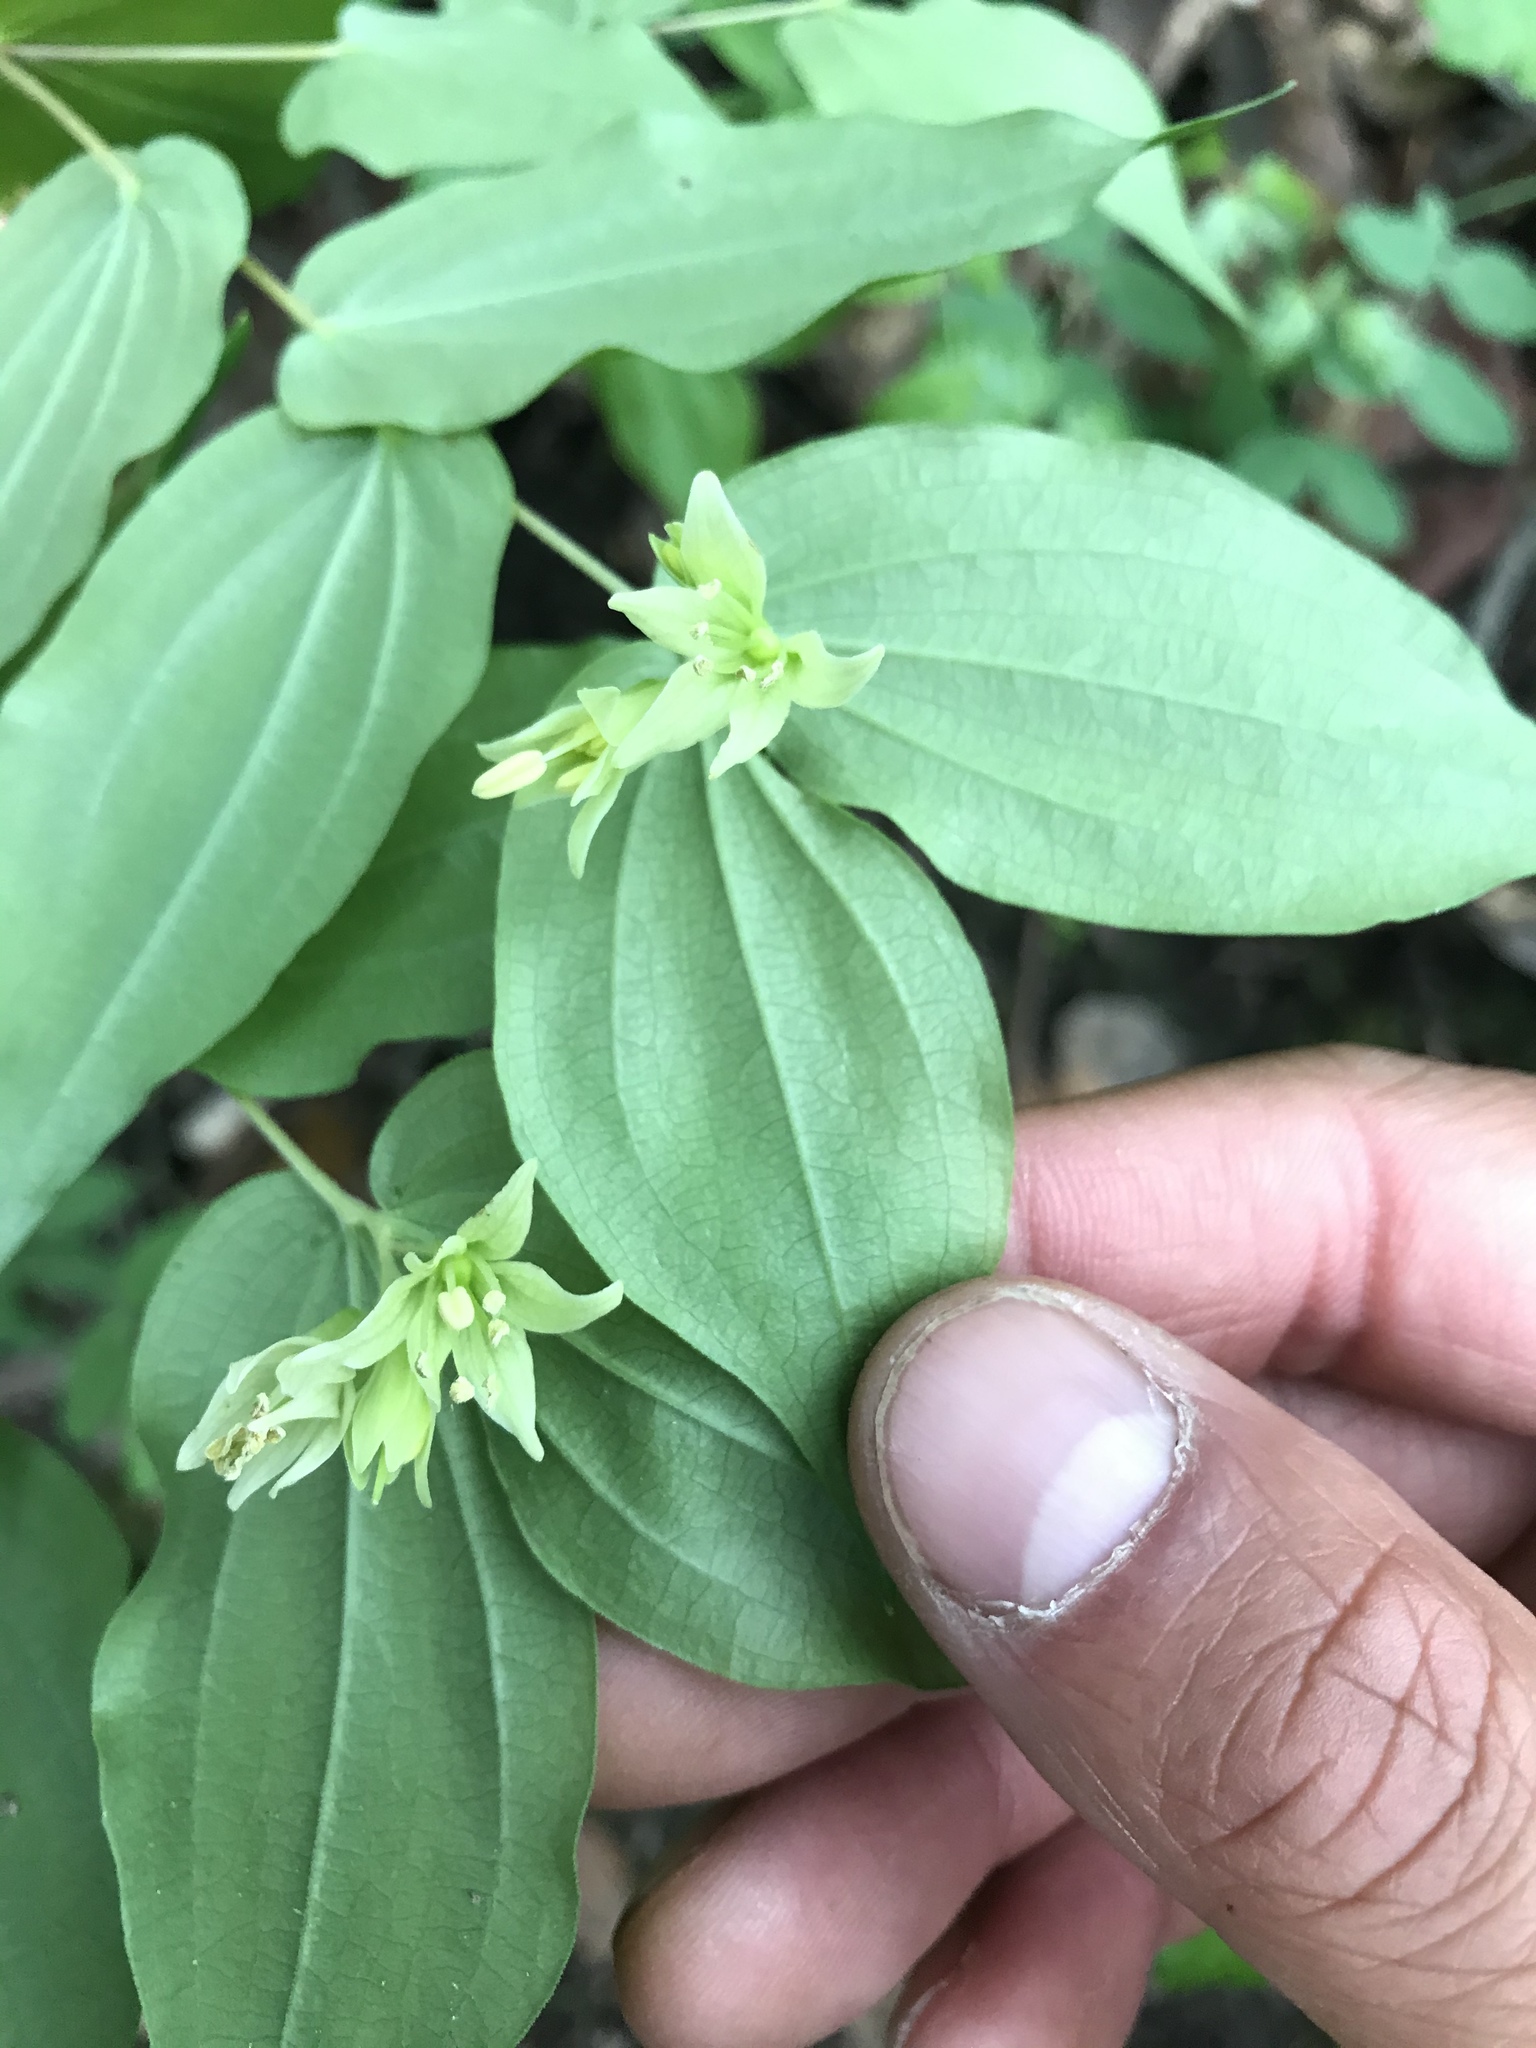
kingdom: Plantae
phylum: Tracheophyta
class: Liliopsida
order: Liliales
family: Liliaceae
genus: Prosartes
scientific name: Prosartes hookeri
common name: Fairy-bells
